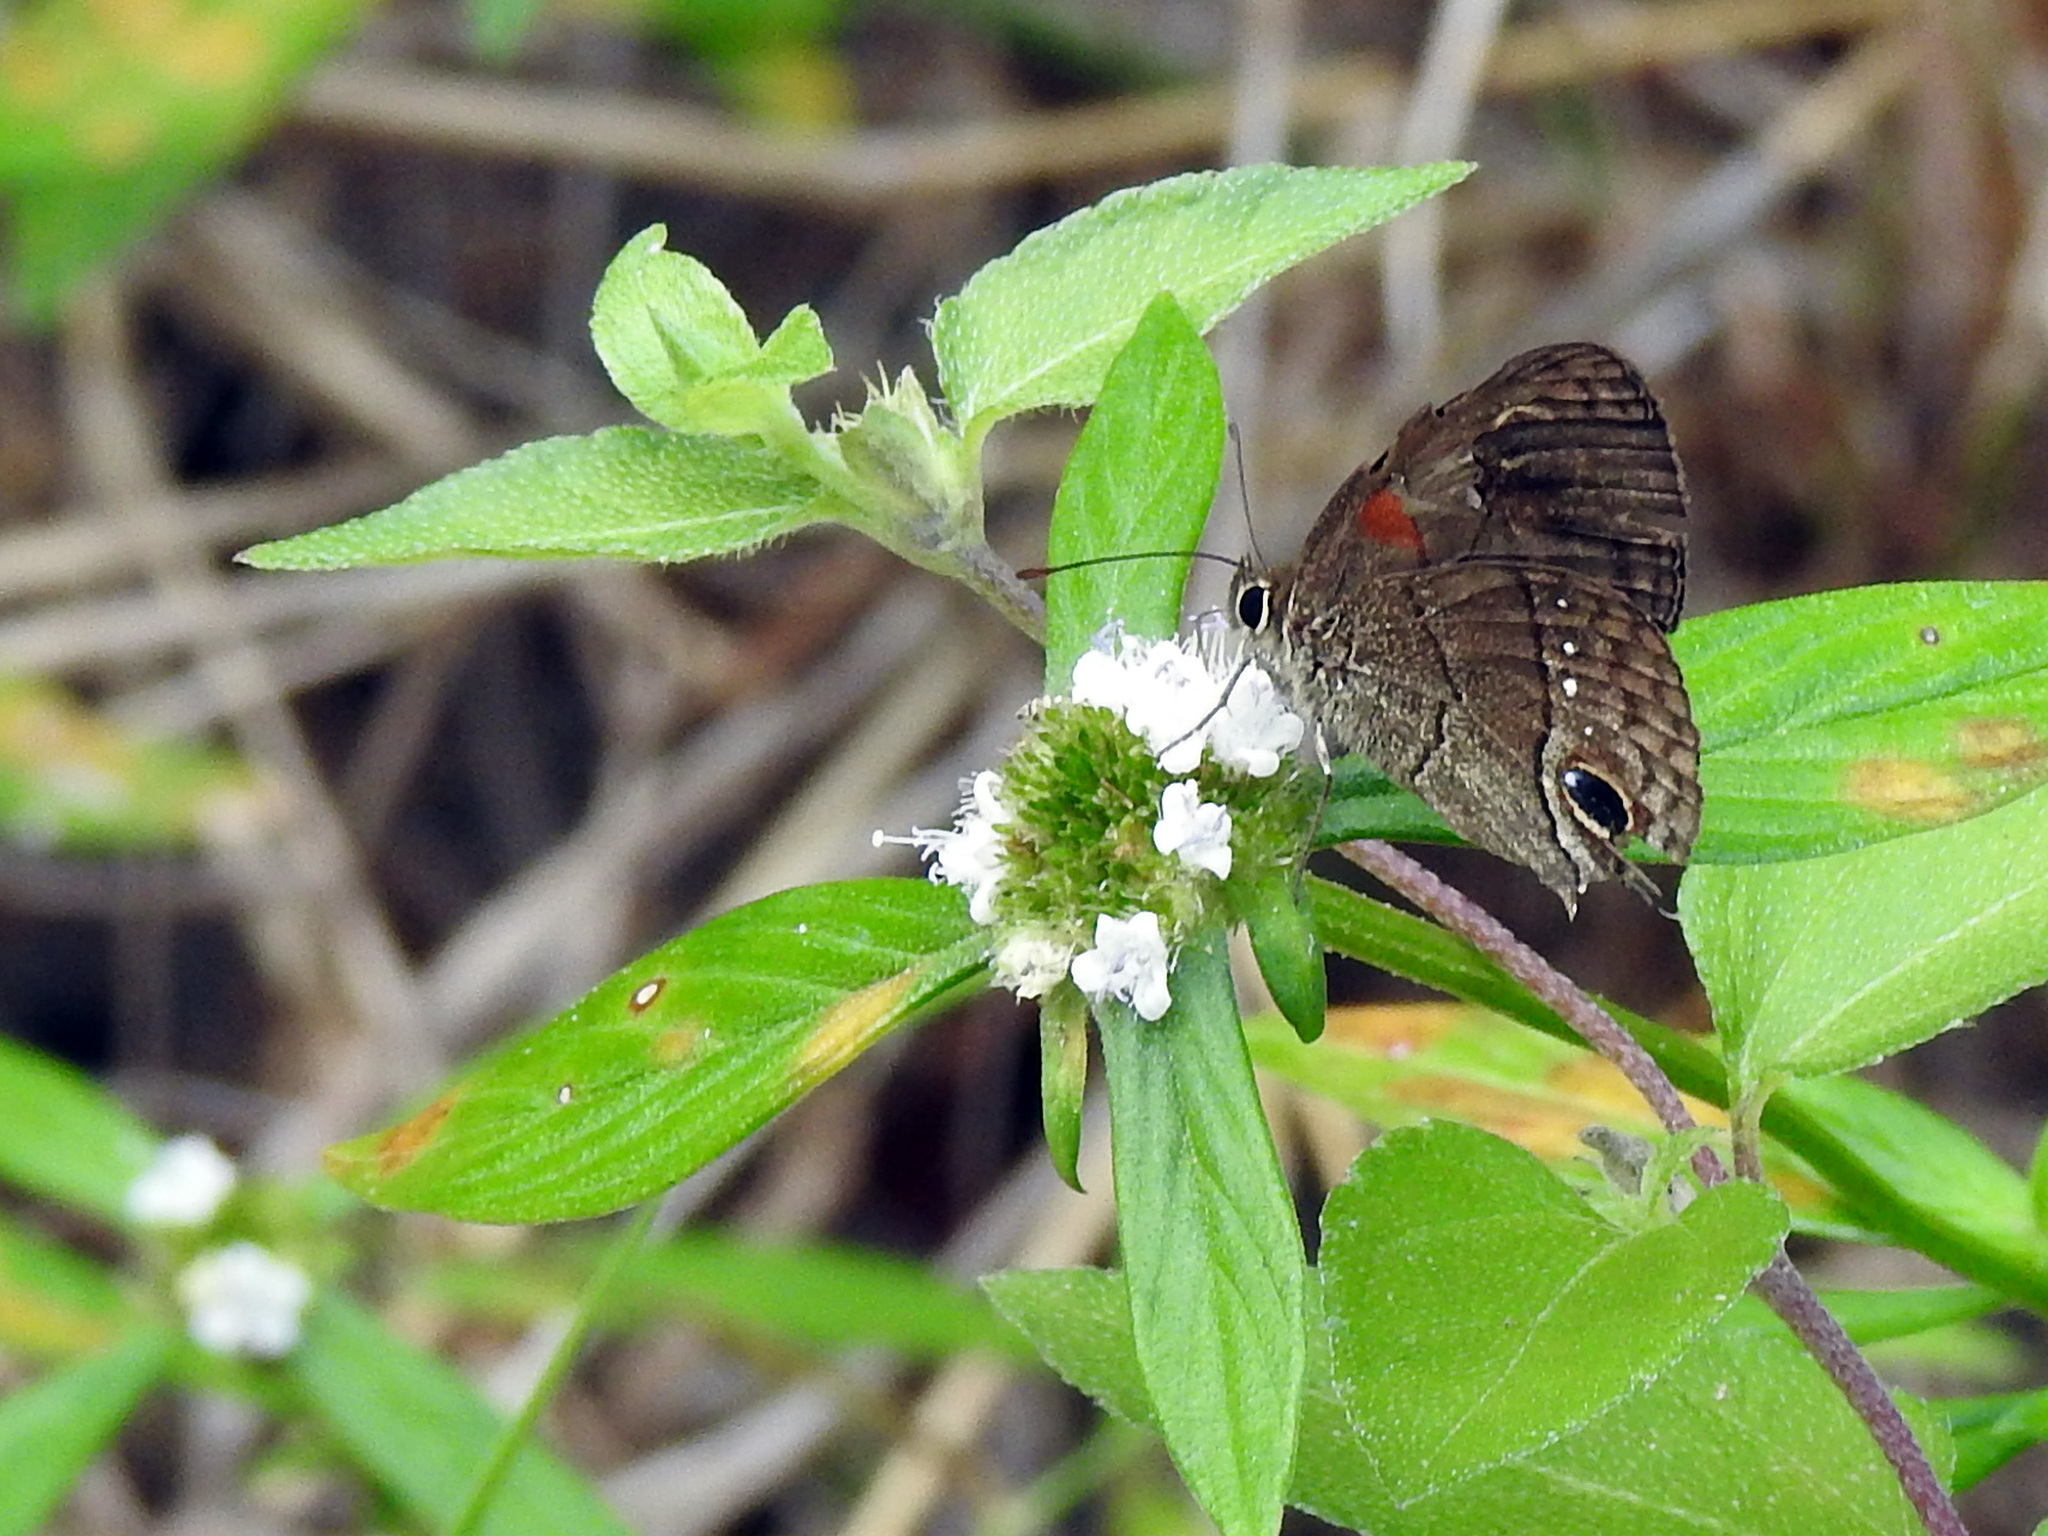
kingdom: Animalia
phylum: Arthropoda
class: Insecta
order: Lepidoptera
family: Nymphalidae
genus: Calisto
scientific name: Calisto herophile
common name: Cuban calisto
